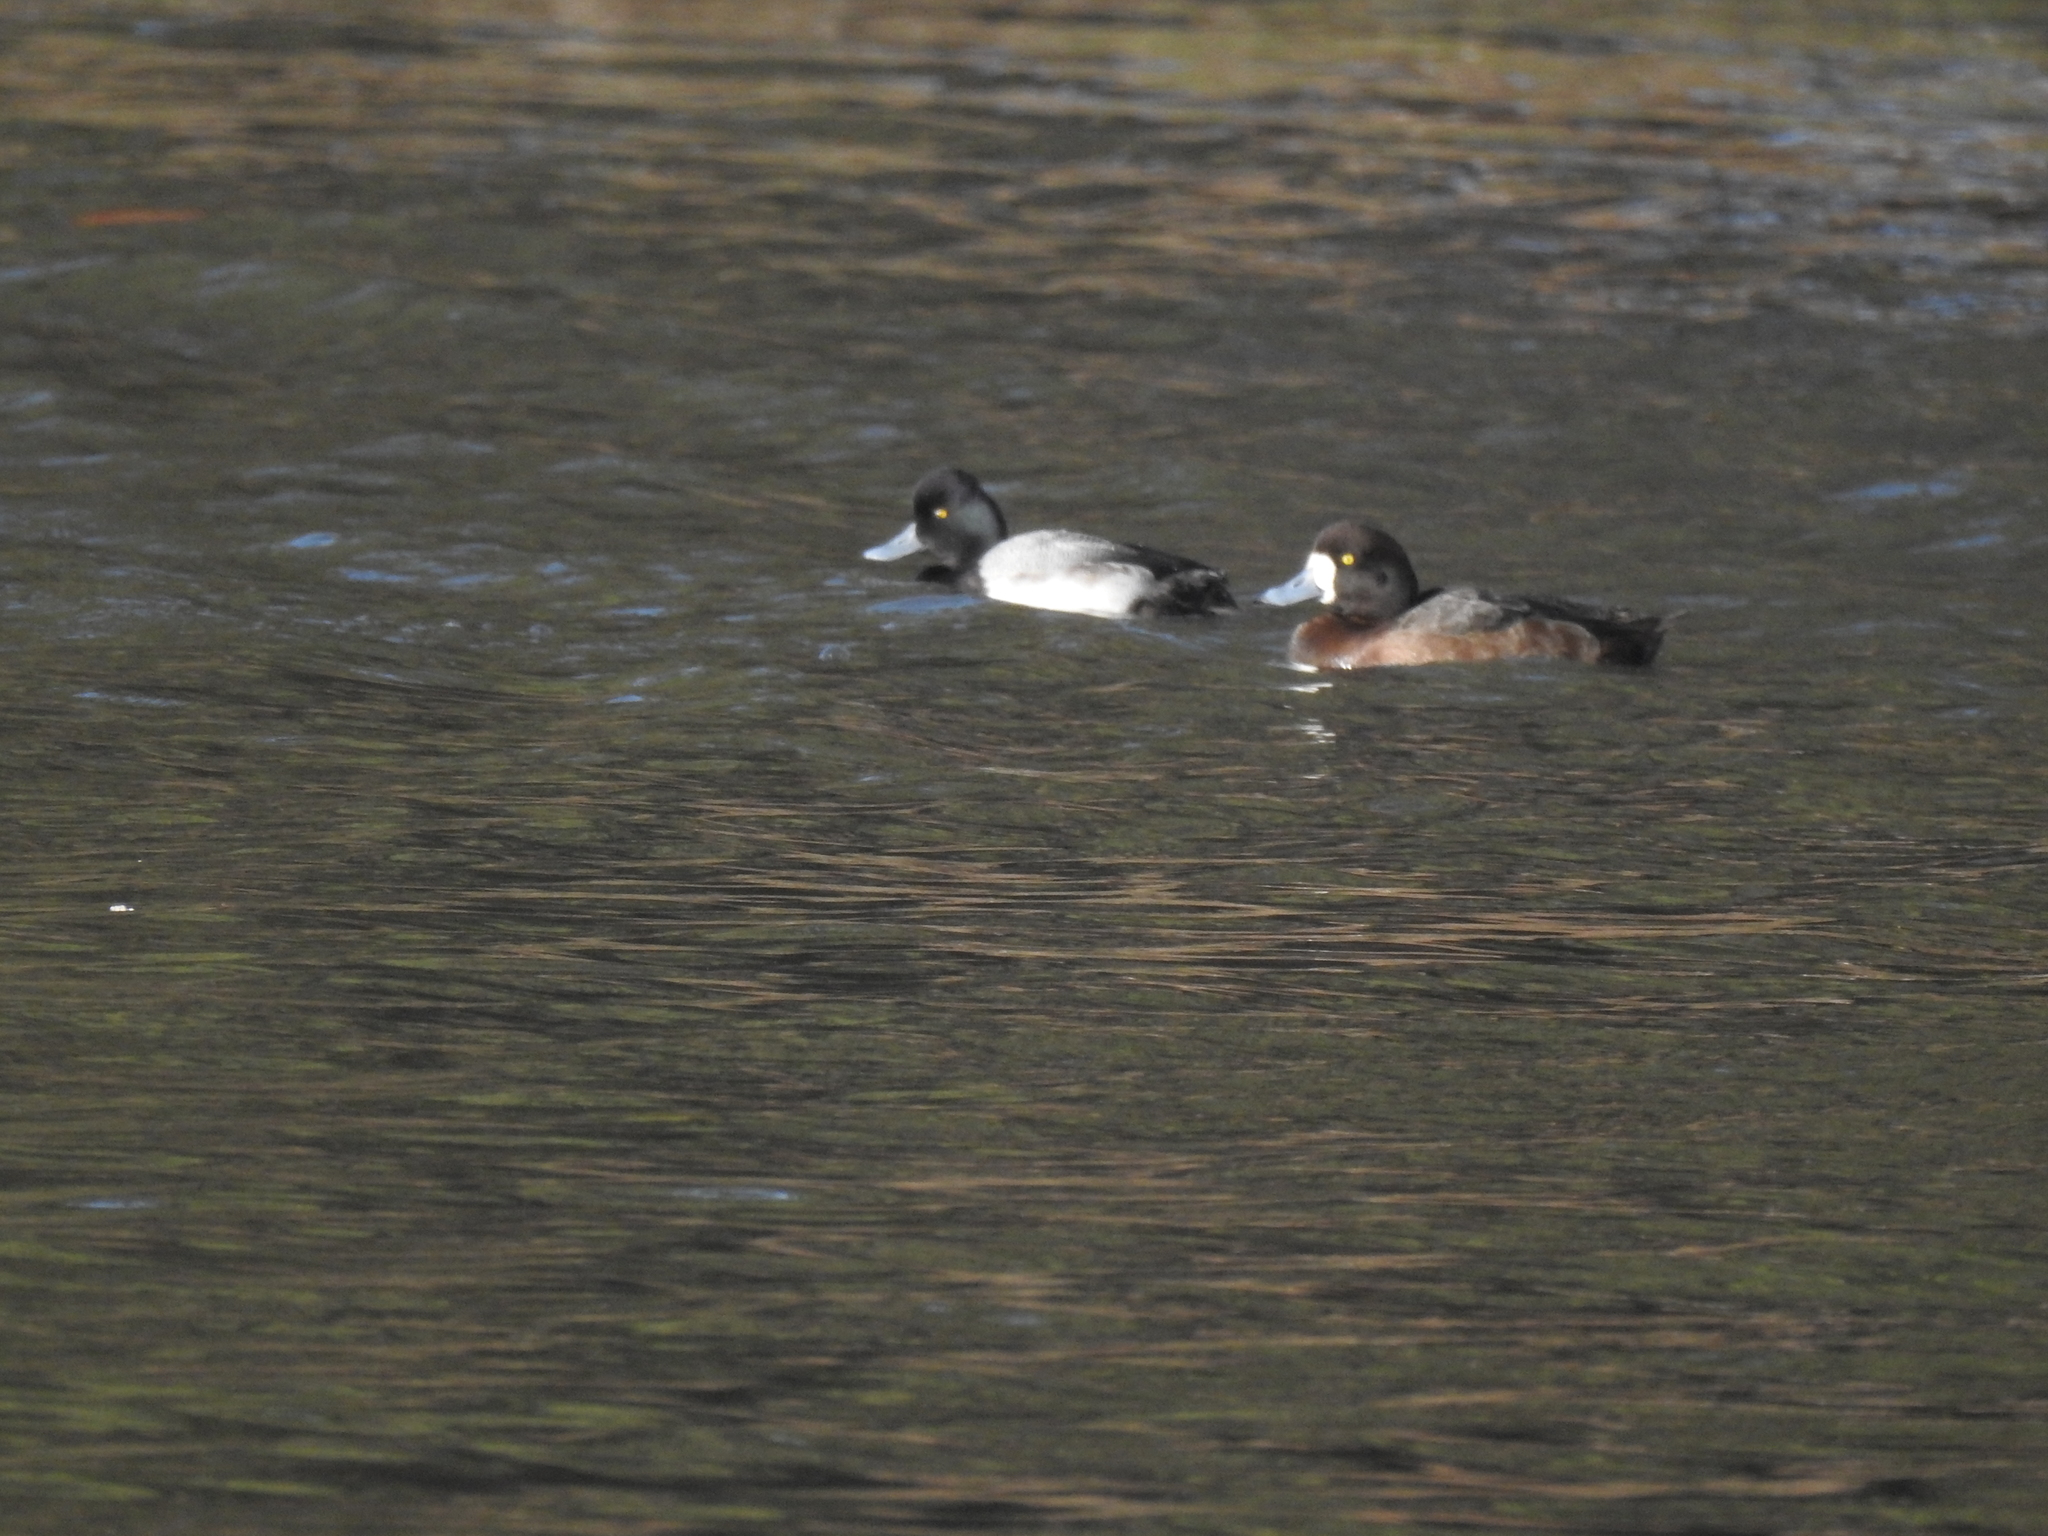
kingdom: Animalia
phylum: Chordata
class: Aves
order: Anseriformes
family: Anatidae
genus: Aythya
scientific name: Aythya affinis
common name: Lesser scaup
